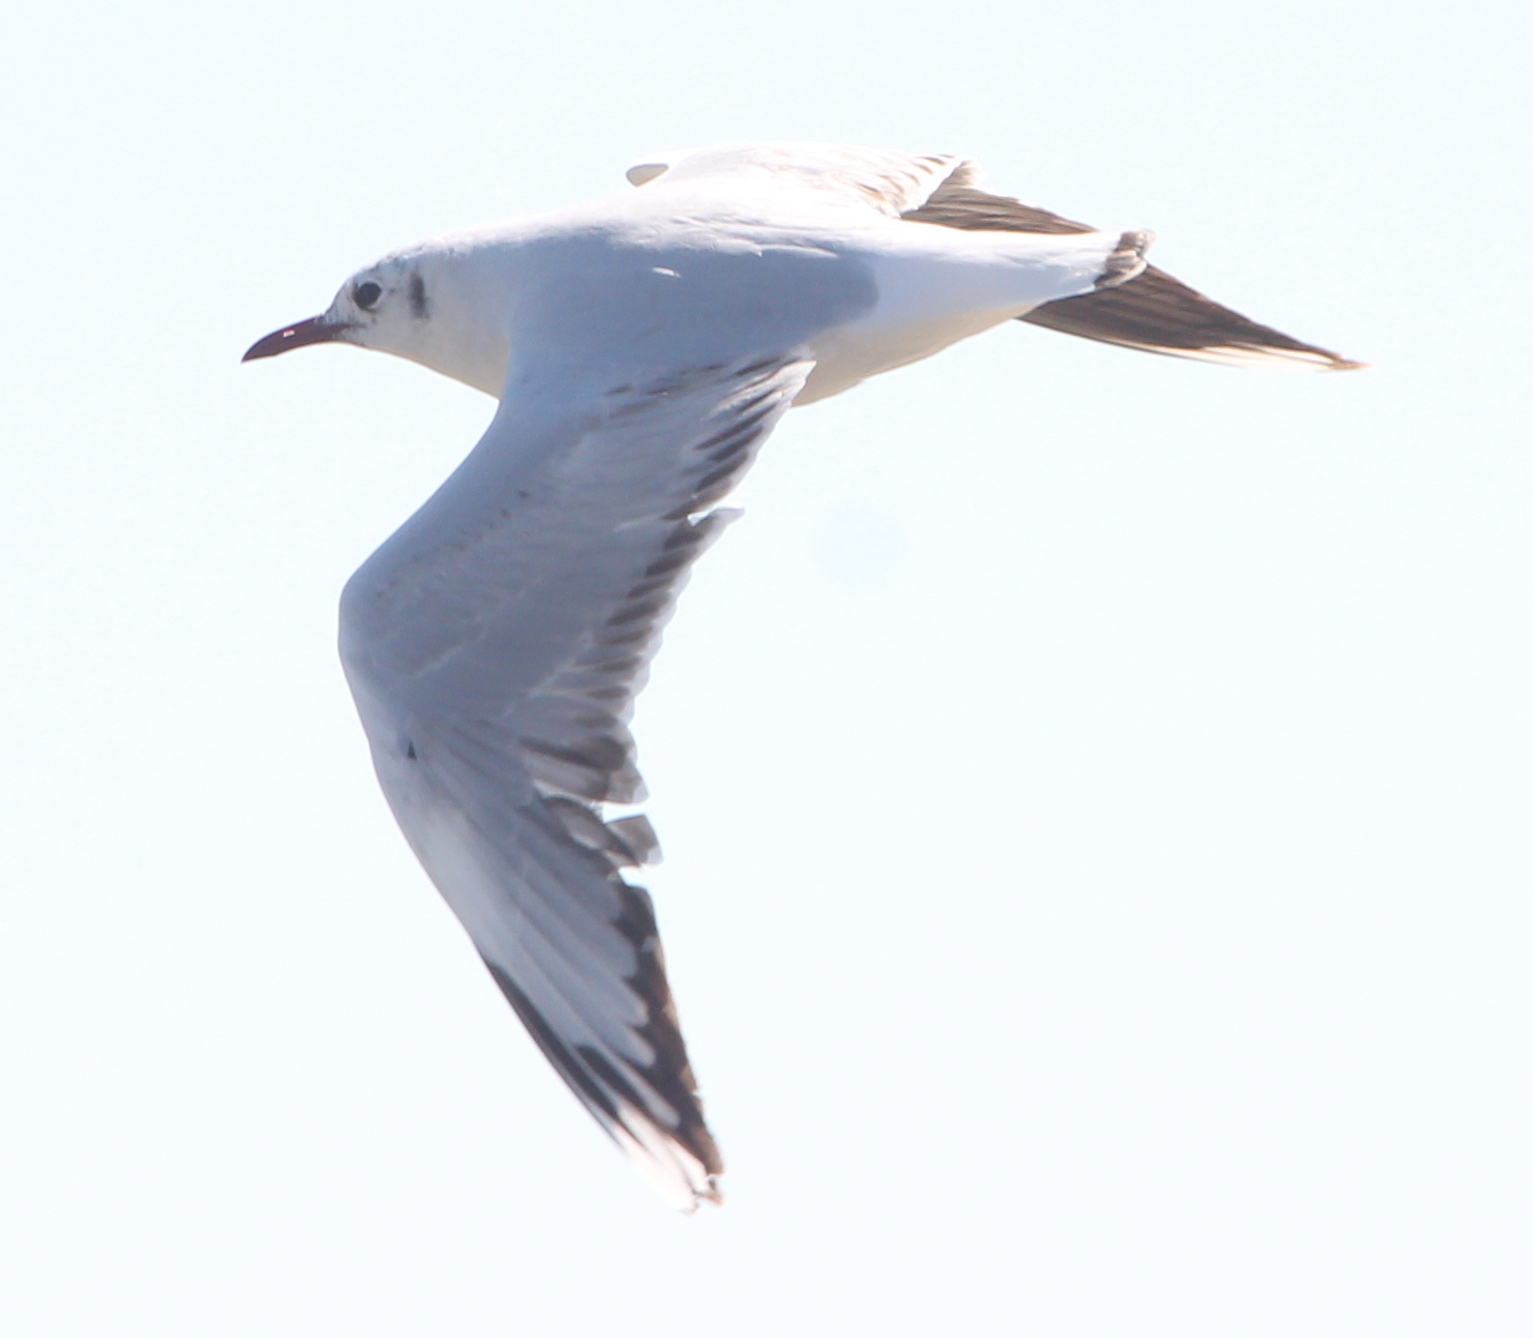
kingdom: Animalia
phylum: Chordata
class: Aves
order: Charadriiformes
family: Laridae
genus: Chroicocephalus
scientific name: Chroicocephalus maculipennis
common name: Brown-hooded gull
